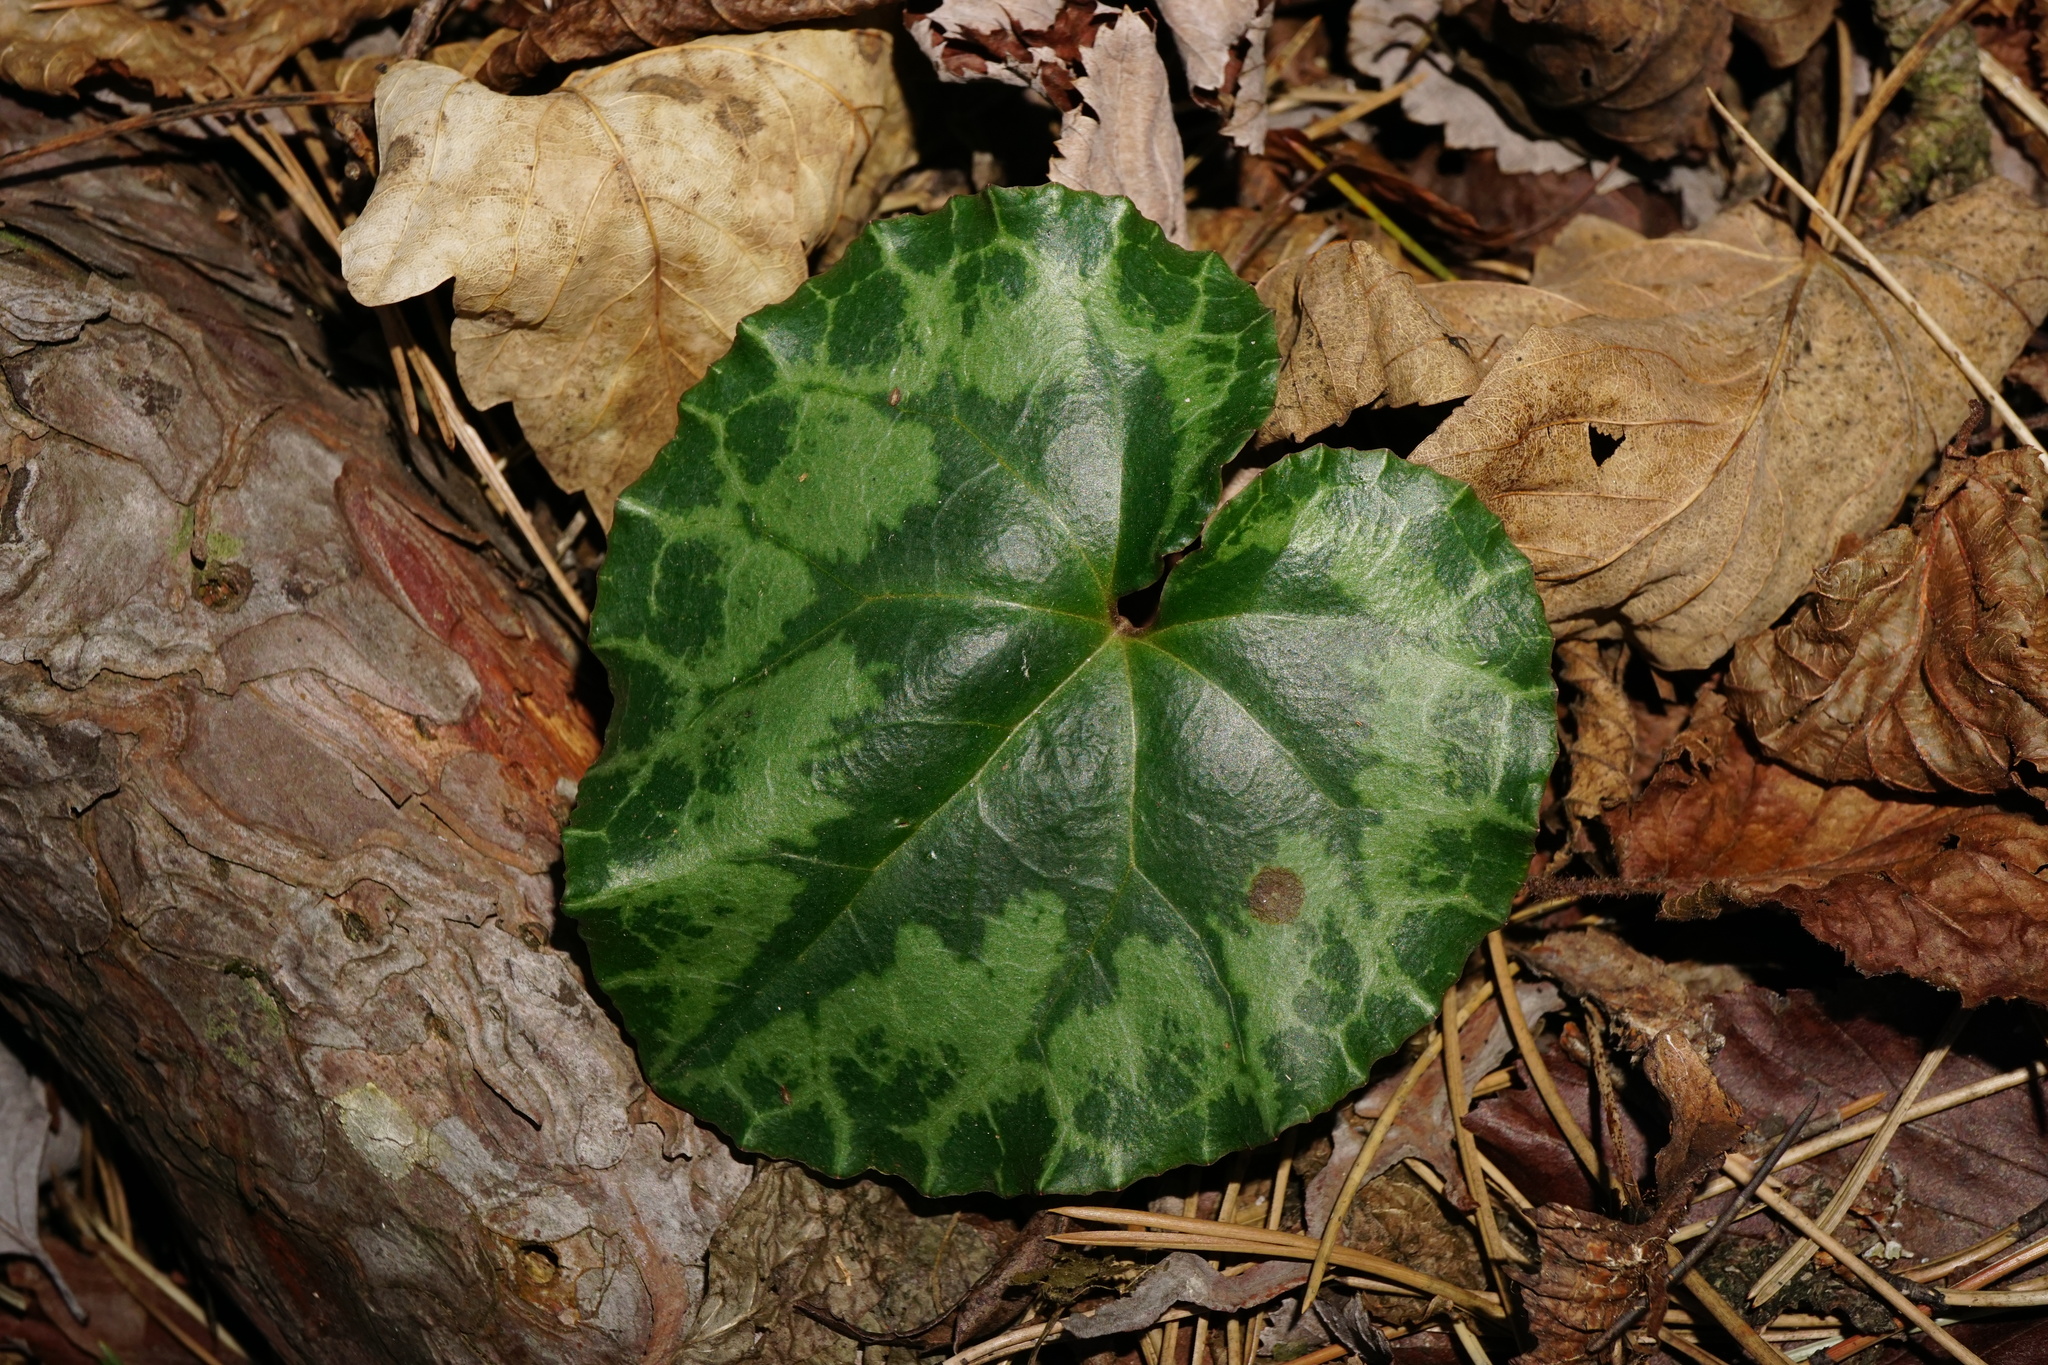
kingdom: Plantae
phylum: Tracheophyta
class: Magnoliopsida
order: Ericales
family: Primulaceae
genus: Cyclamen
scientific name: Cyclamen purpurascens
